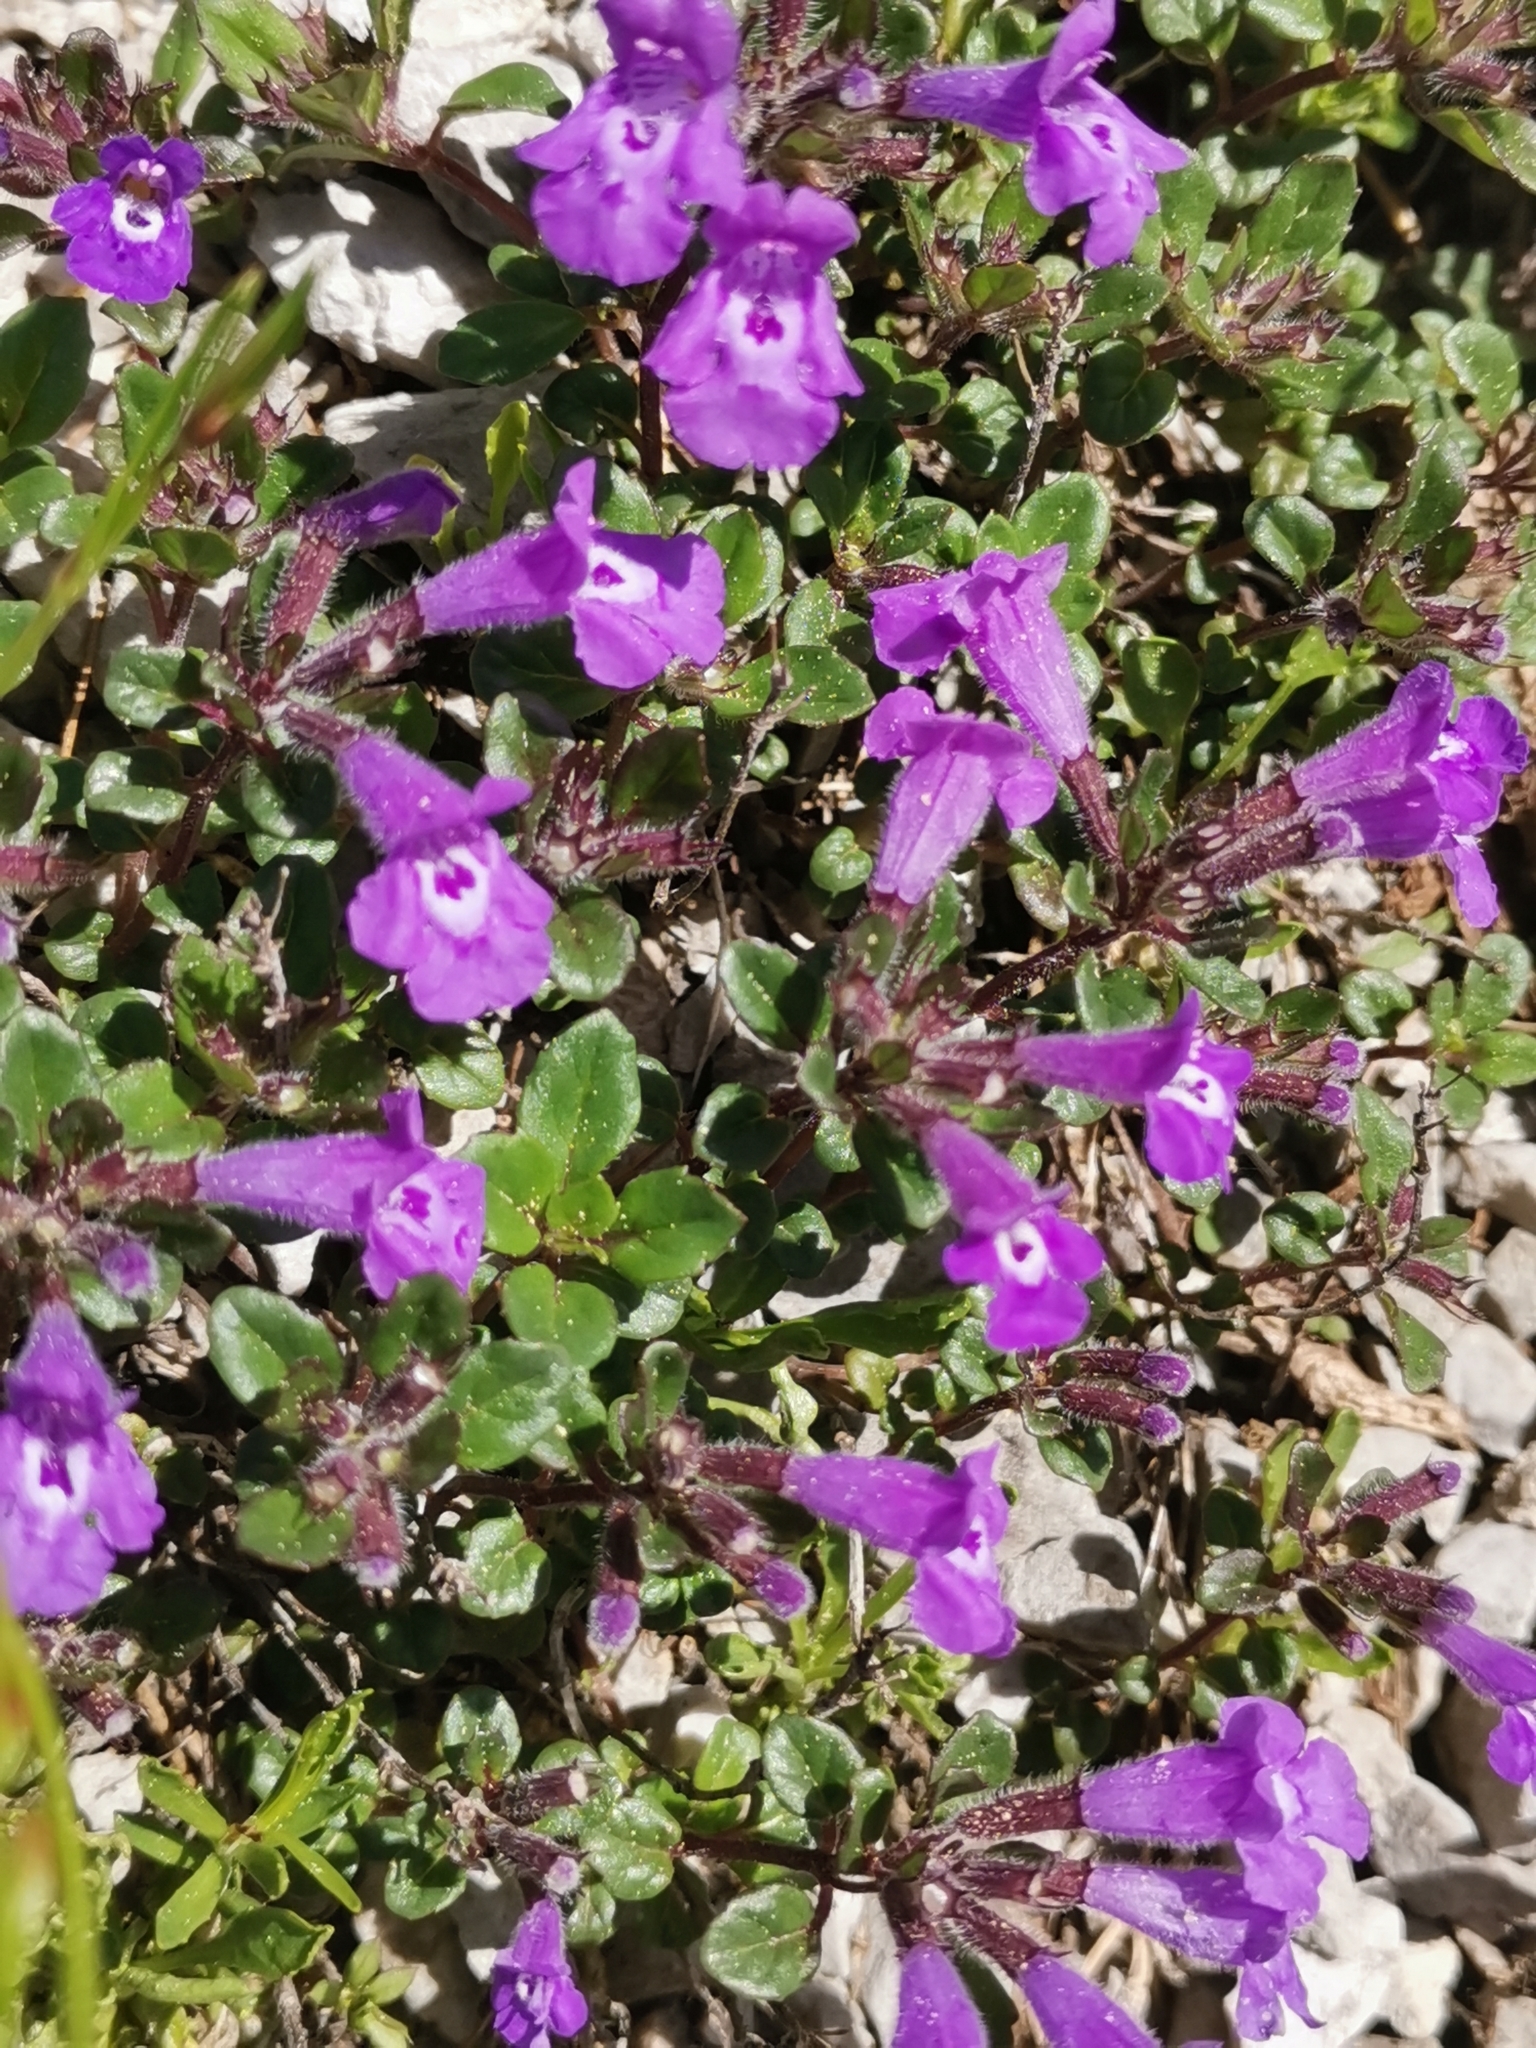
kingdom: Plantae
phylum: Tracheophyta
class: Magnoliopsida
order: Lamiales
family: Lamiaceae
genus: Clinopodium
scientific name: Clinopodium alpinum
